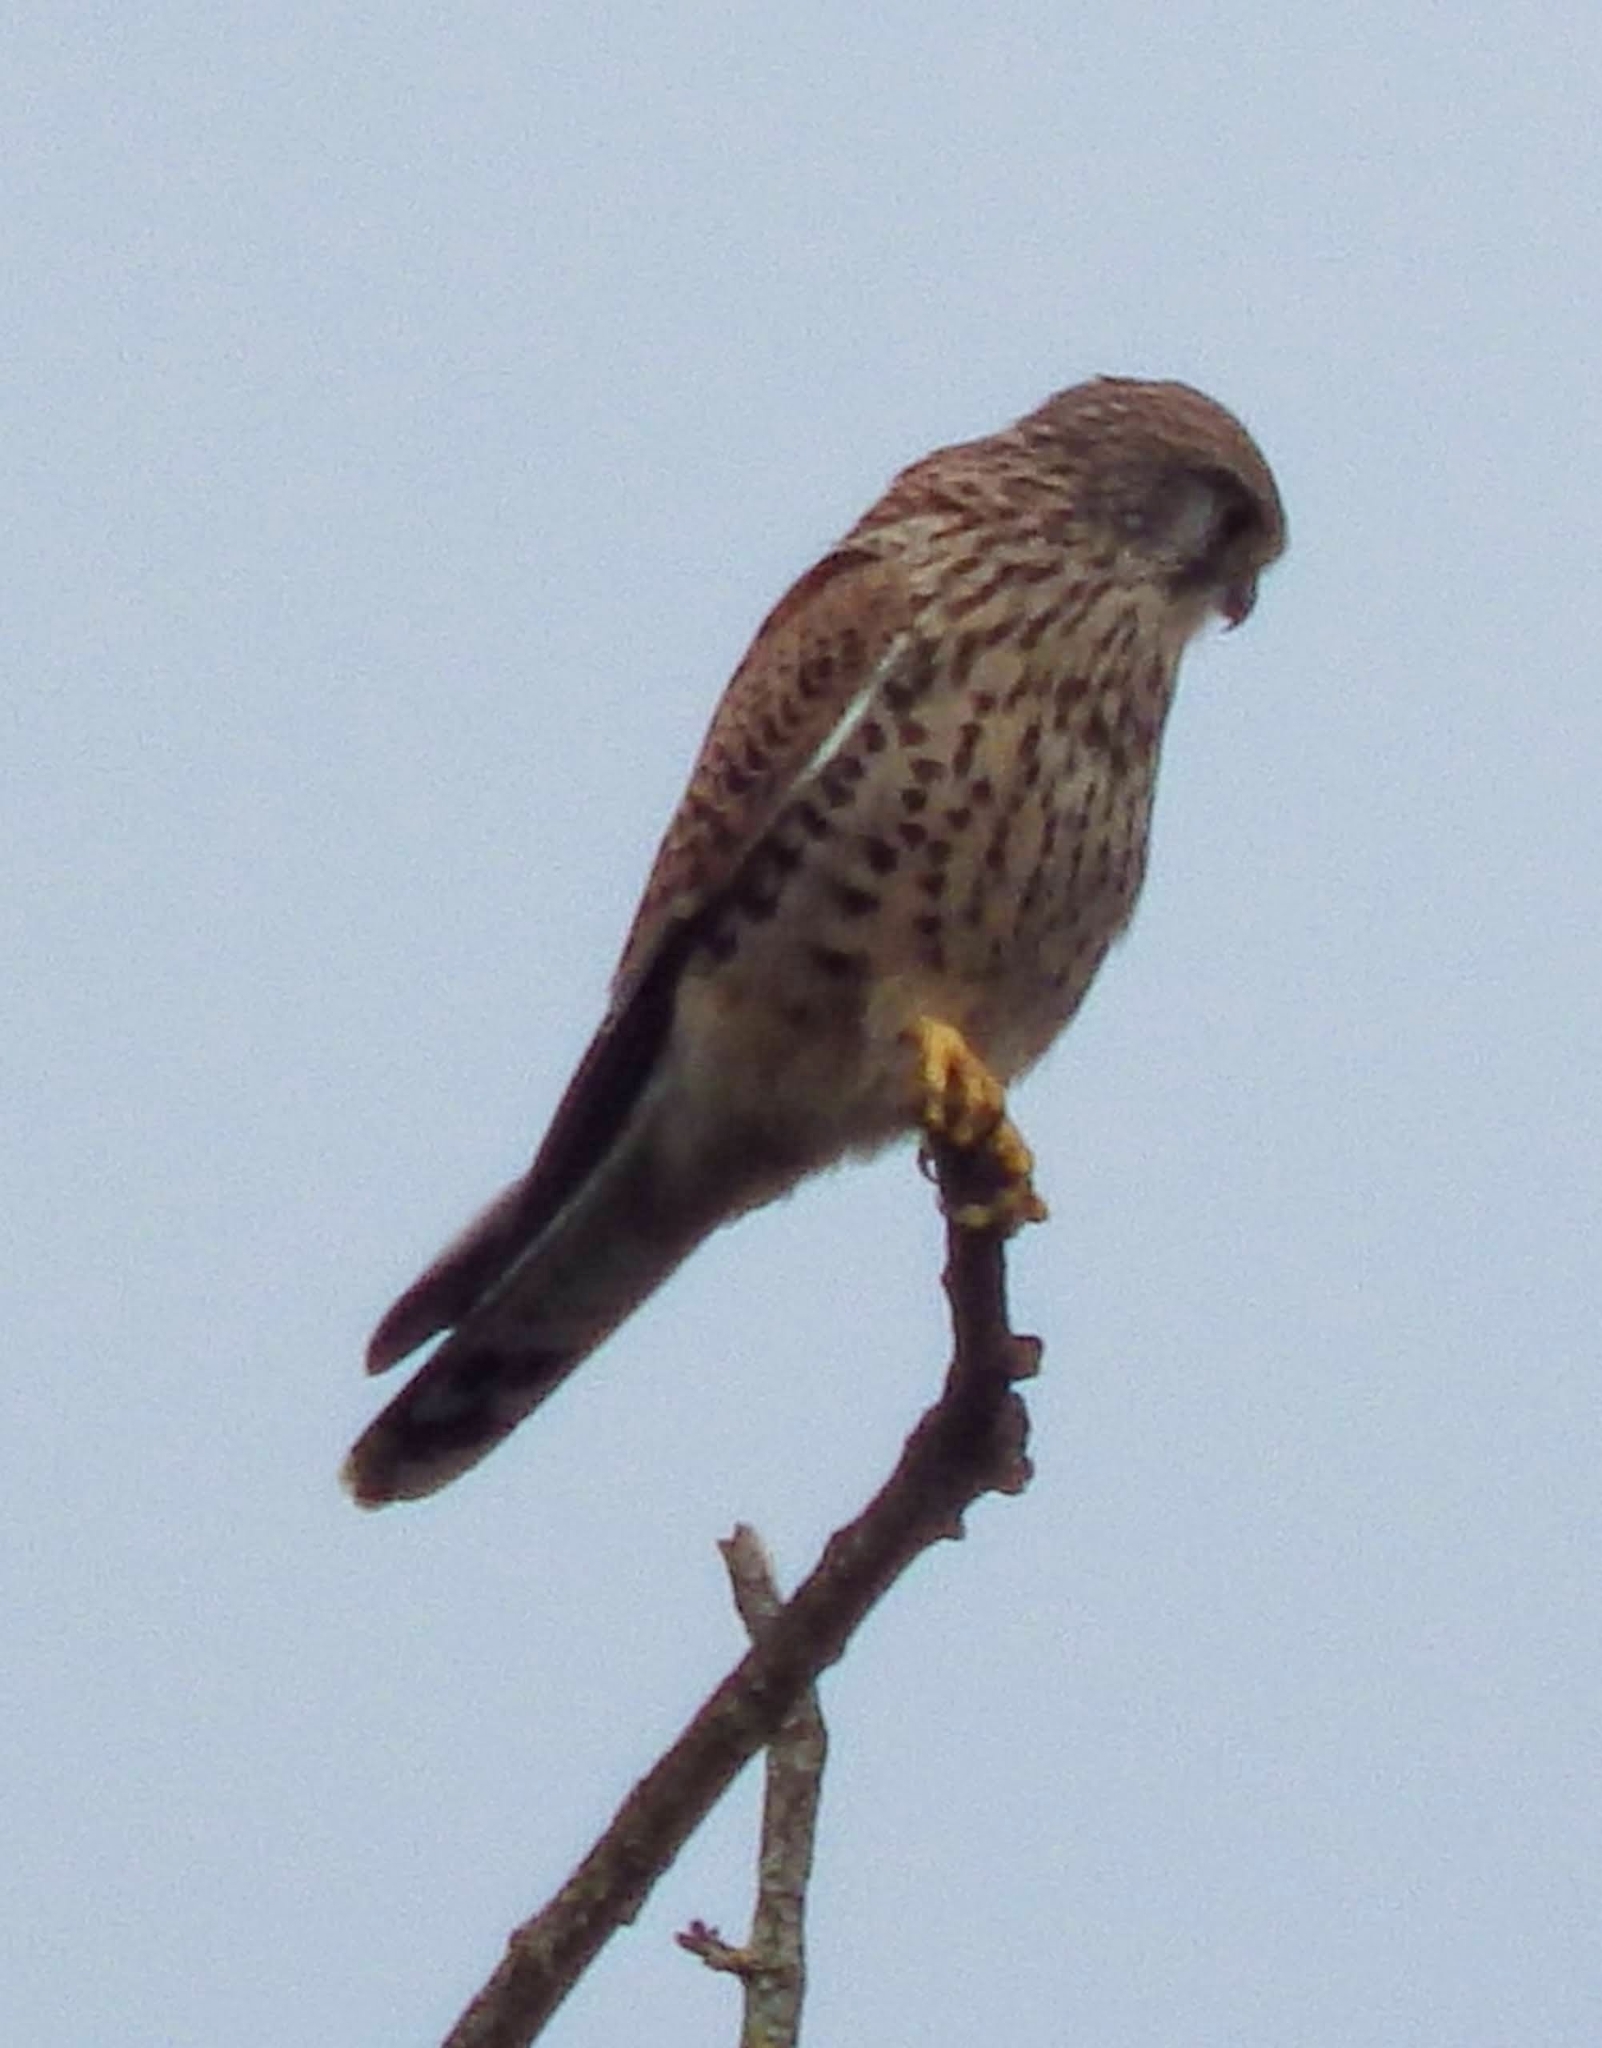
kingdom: Animalia
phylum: Chordata
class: Aves
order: Falconiformes
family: Falconidae
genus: Falco
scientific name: Falco tinnunculus
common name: Common kestrel
